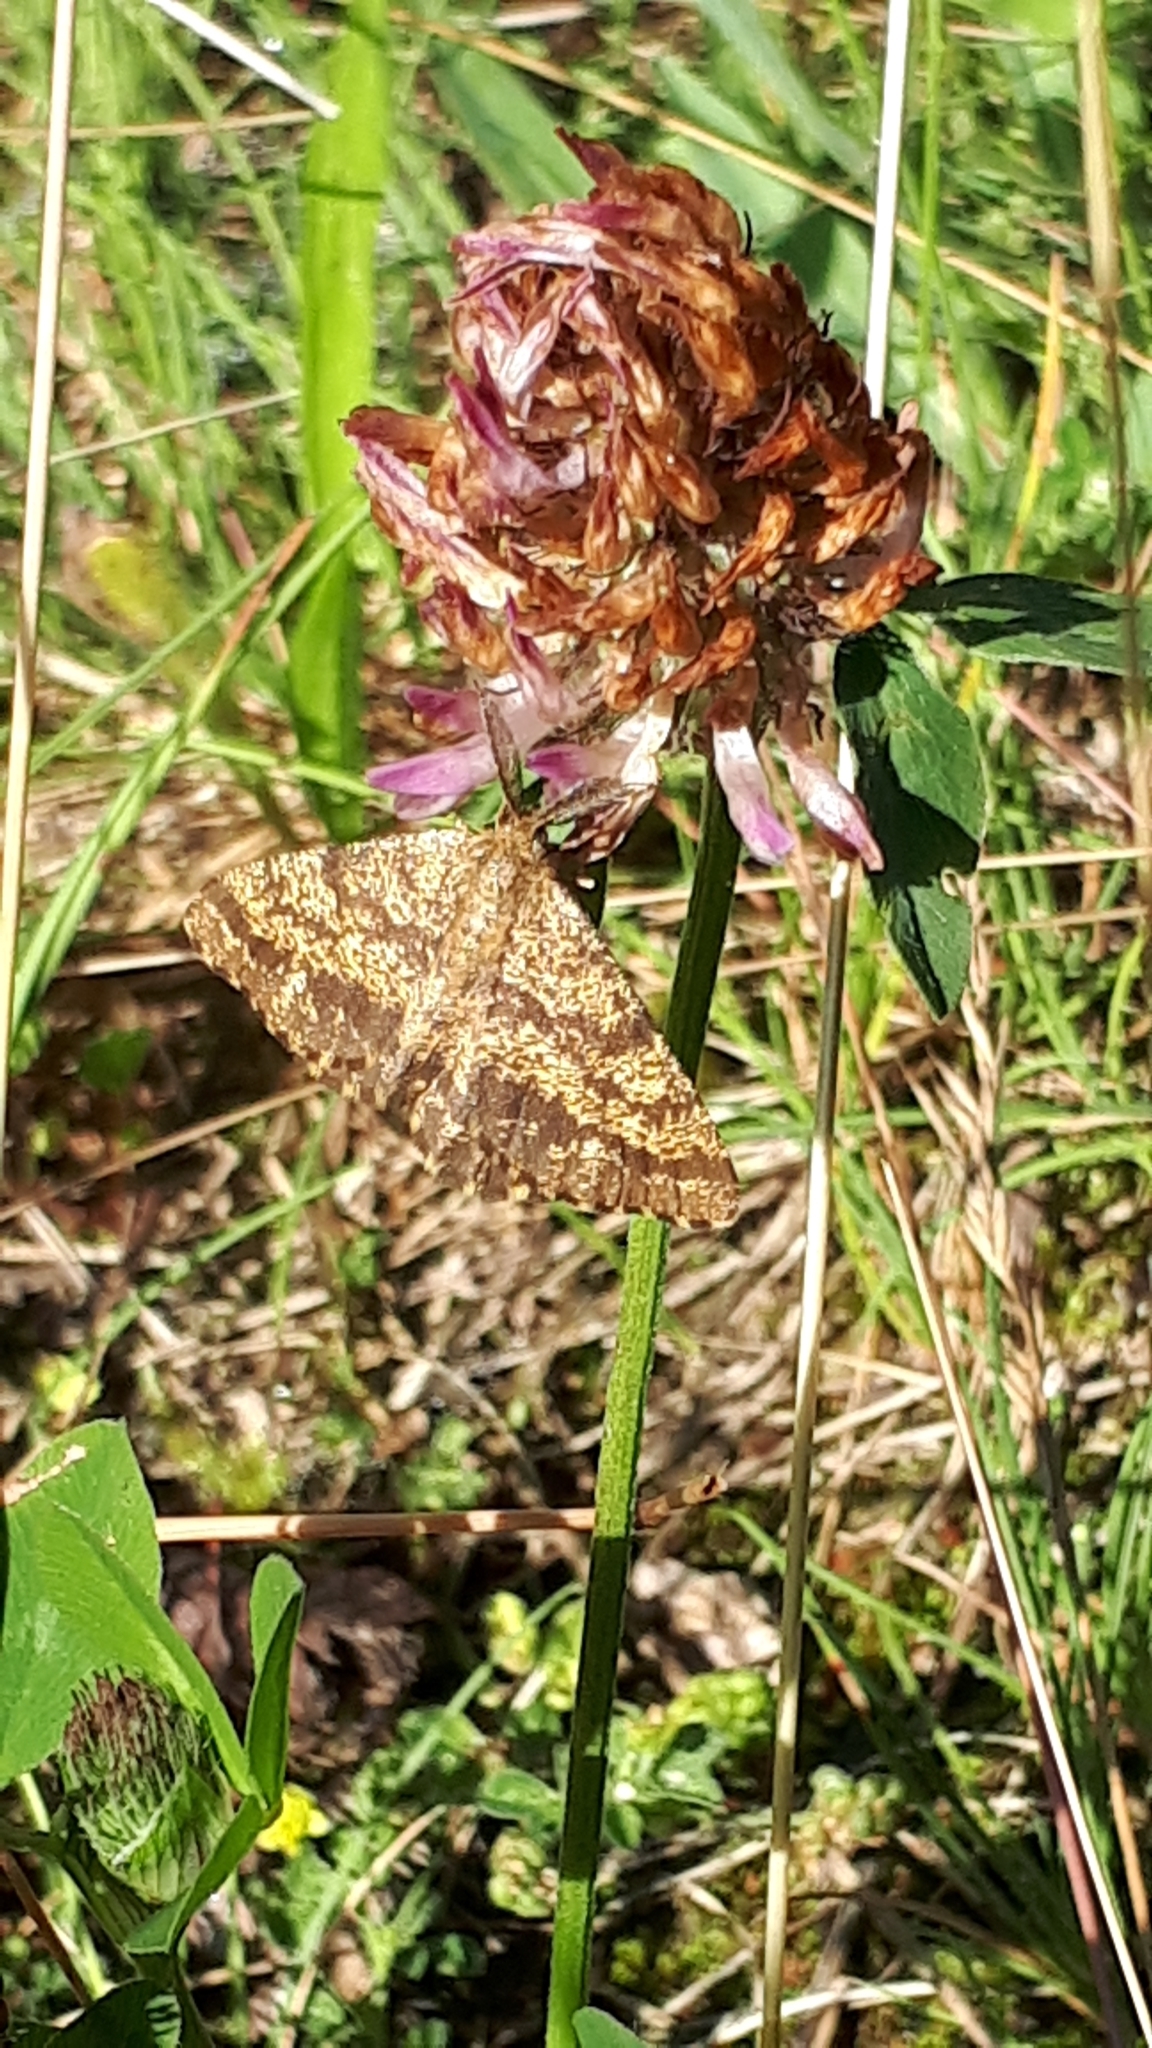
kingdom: Animalia
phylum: Arthropoda
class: Insecta
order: Lepidoptera
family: Geometridae
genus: Ematurga
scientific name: Ematurga atomaria
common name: Common heath
